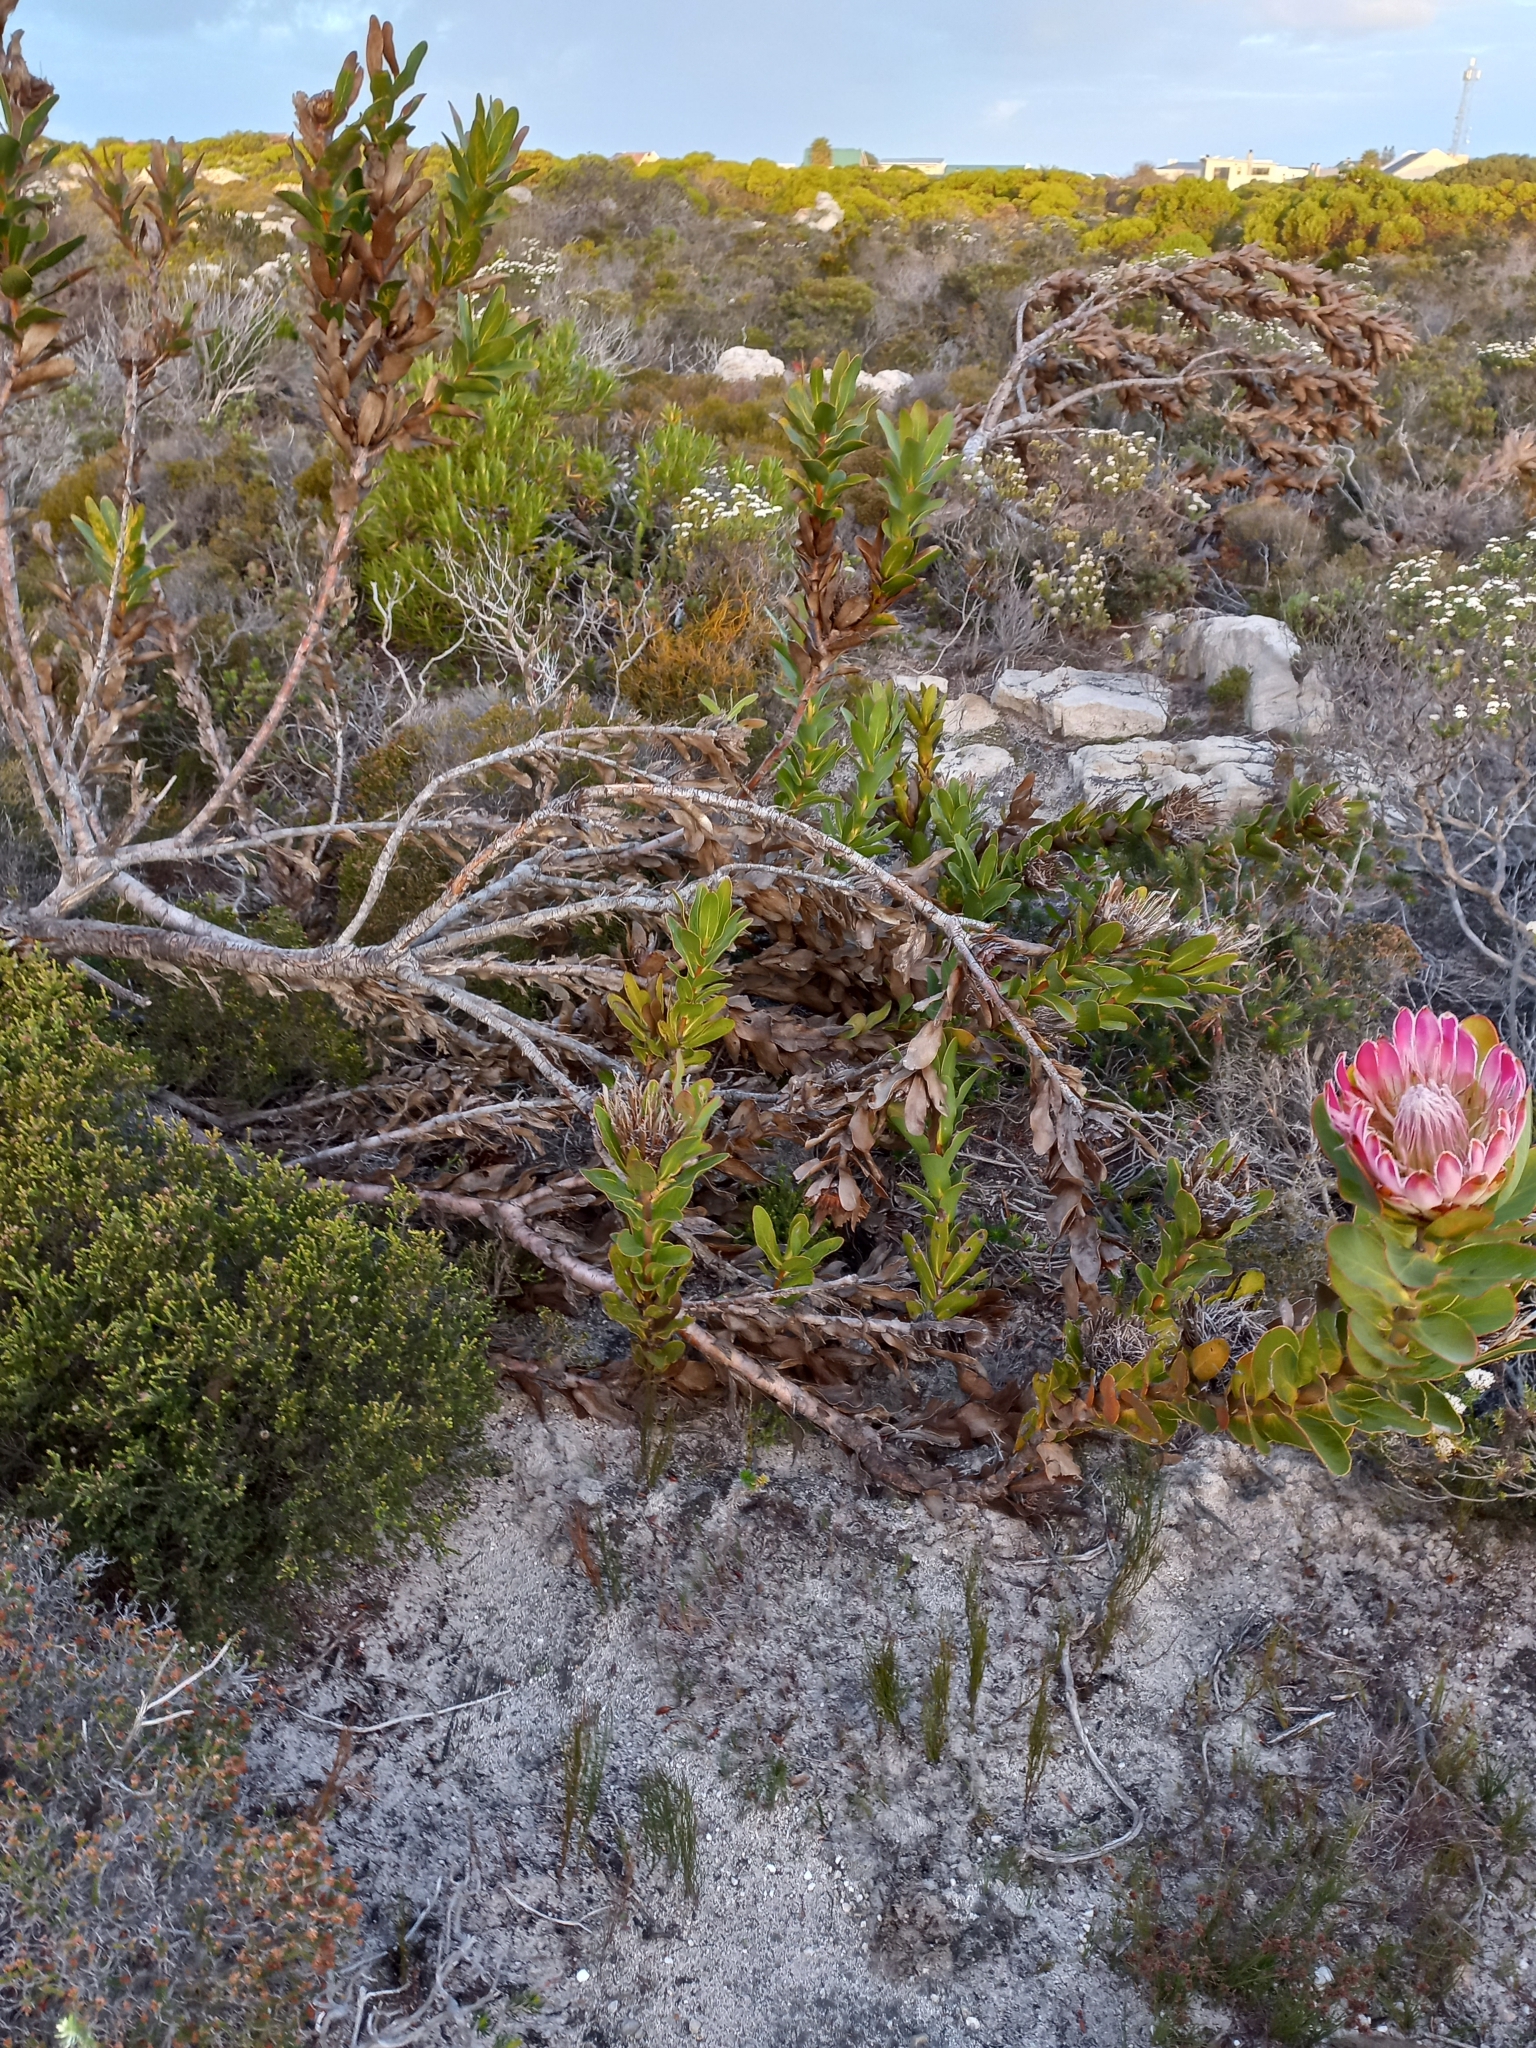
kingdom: Plantae
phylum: Tracheophyta
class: Magnoliopsida
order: Proteales
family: Proteaceae
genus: Protea
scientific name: Protea compacta
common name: Bot river protea
